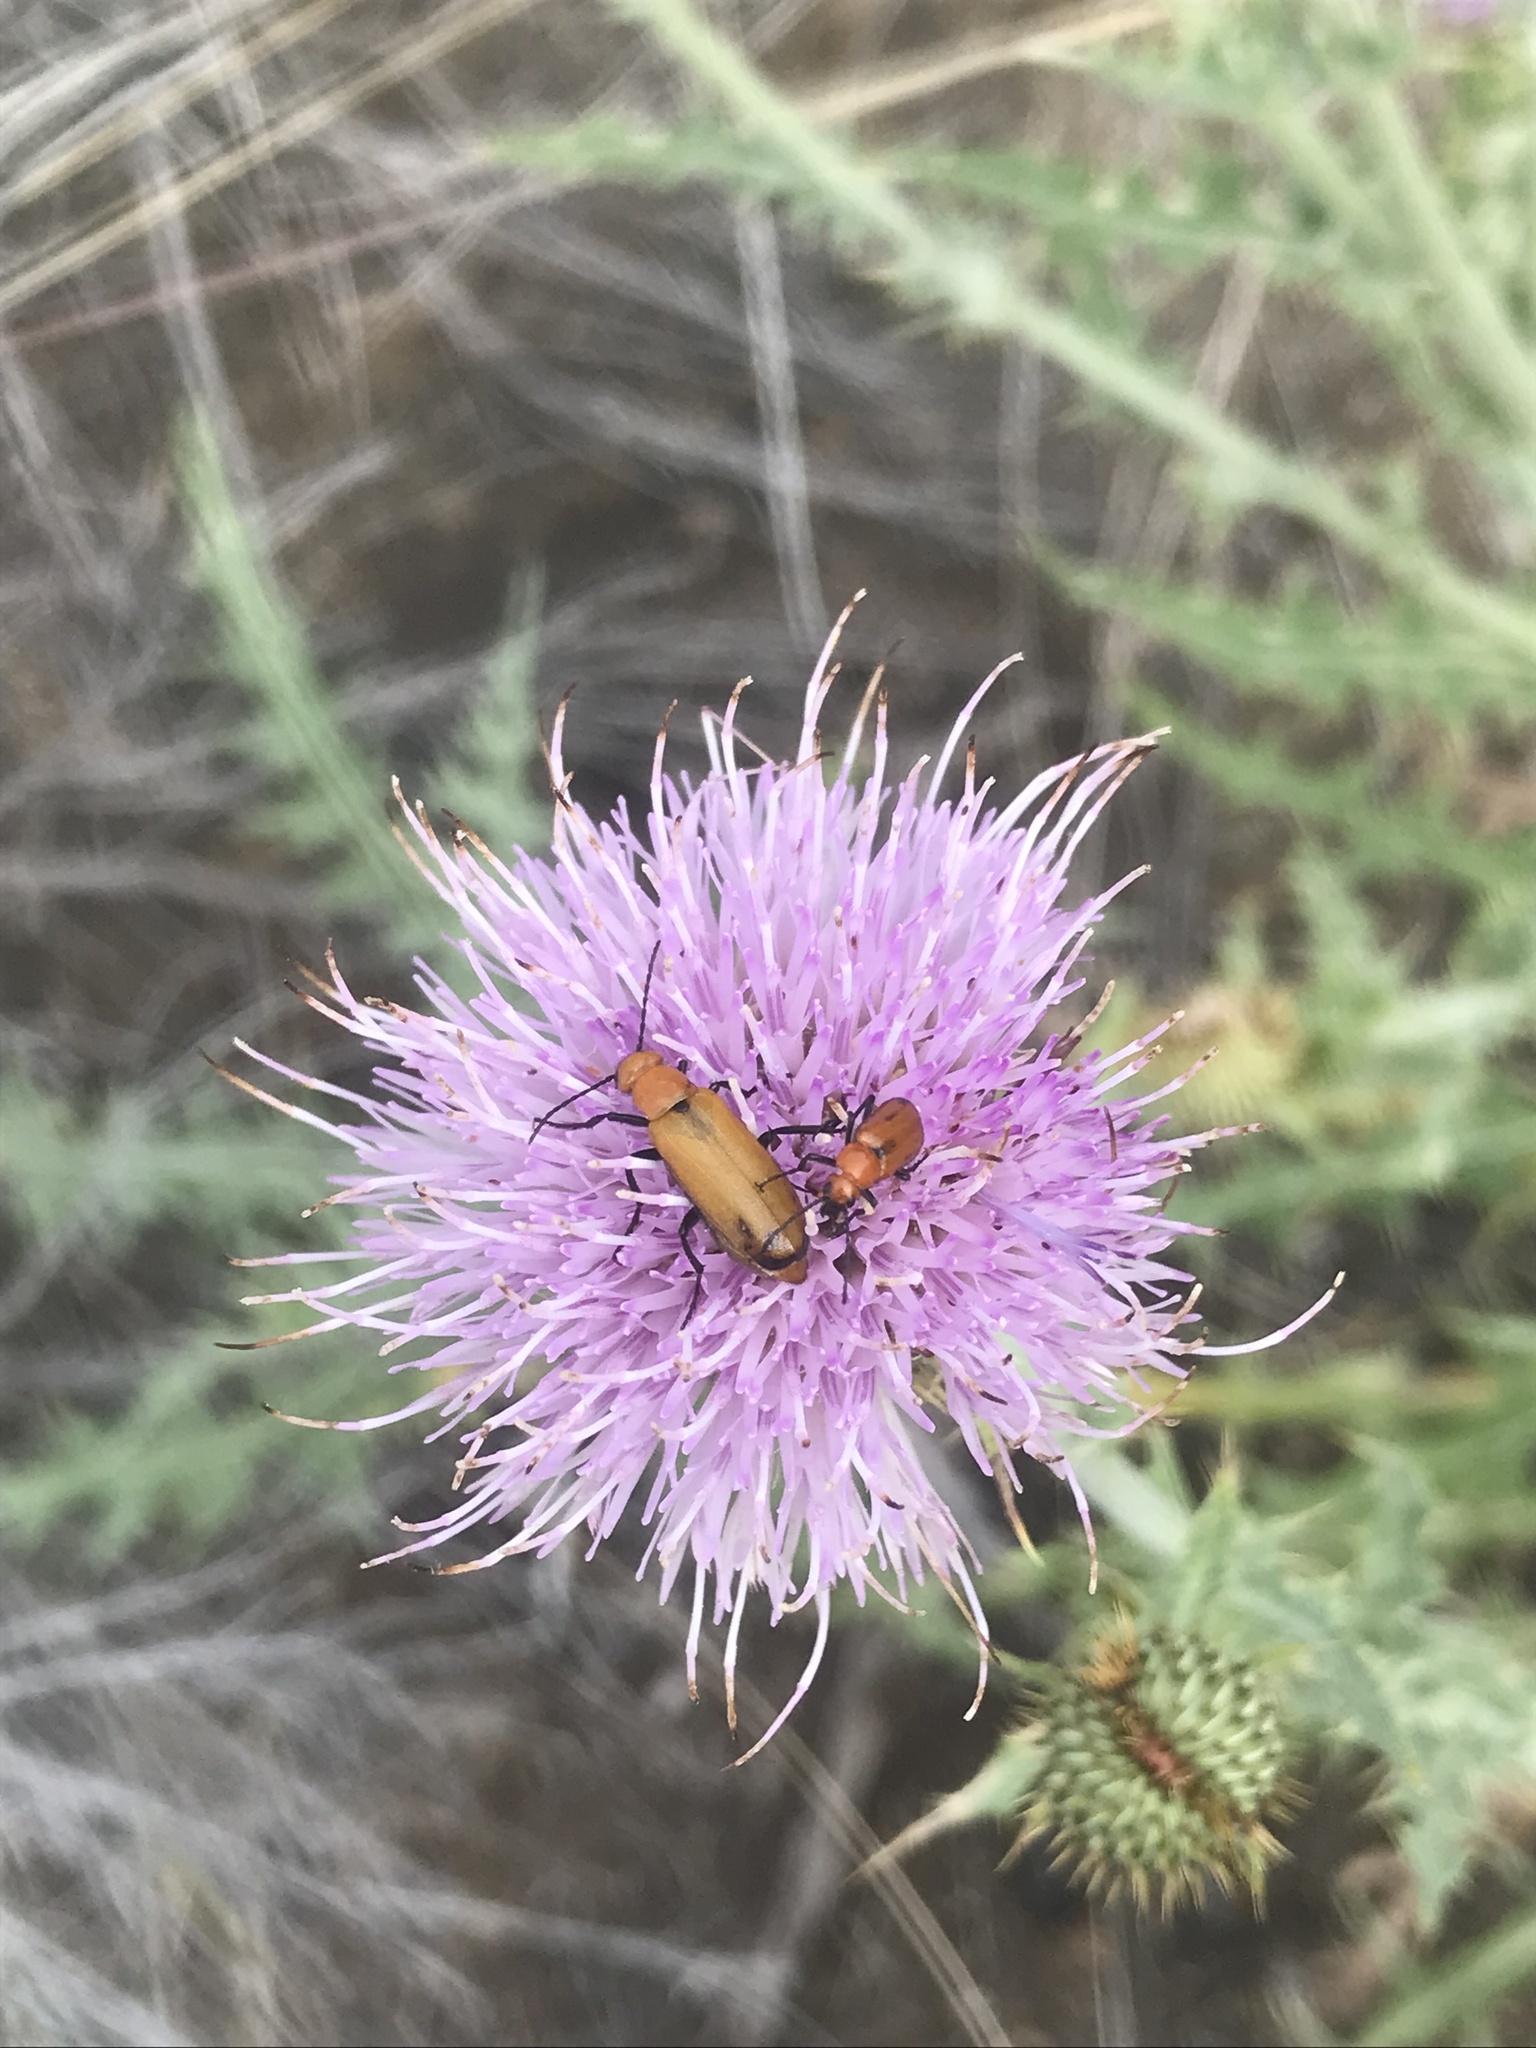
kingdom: Animalia
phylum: Arthropoda
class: Insecta
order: Coleoptera
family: Meloidae
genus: Nemognatha
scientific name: Nemognatha lutea
